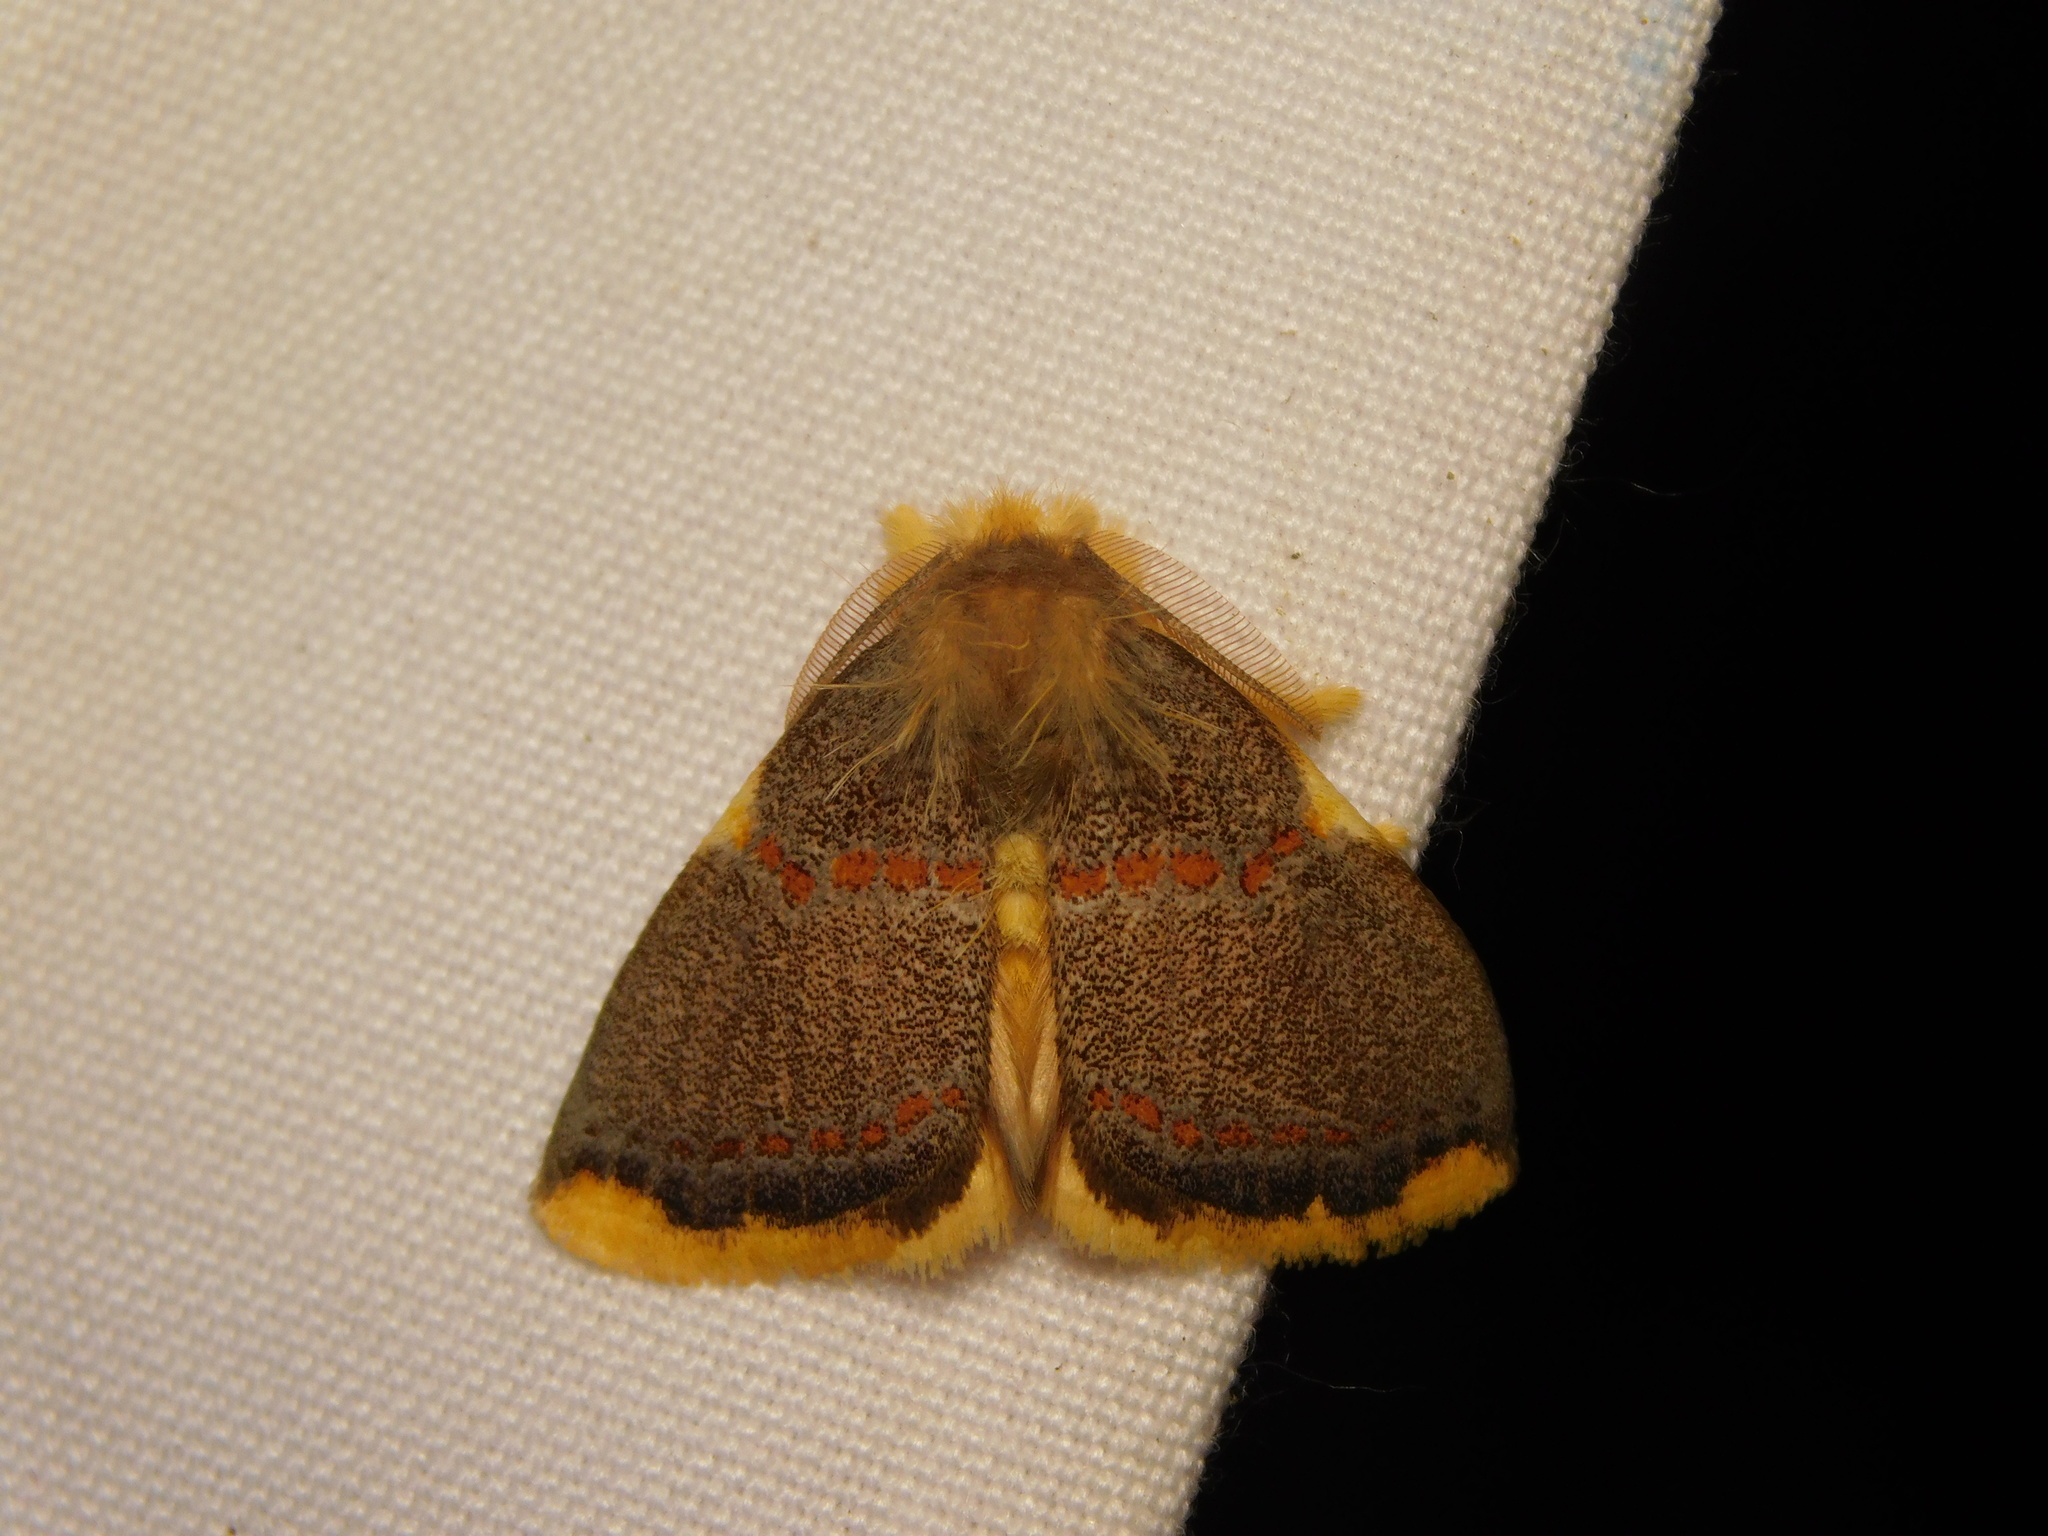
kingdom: Animalia
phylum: Arthropoda
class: Insecta
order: Lepidoptera
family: Erebidae
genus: Euproctis
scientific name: Euproctis luteifascia
